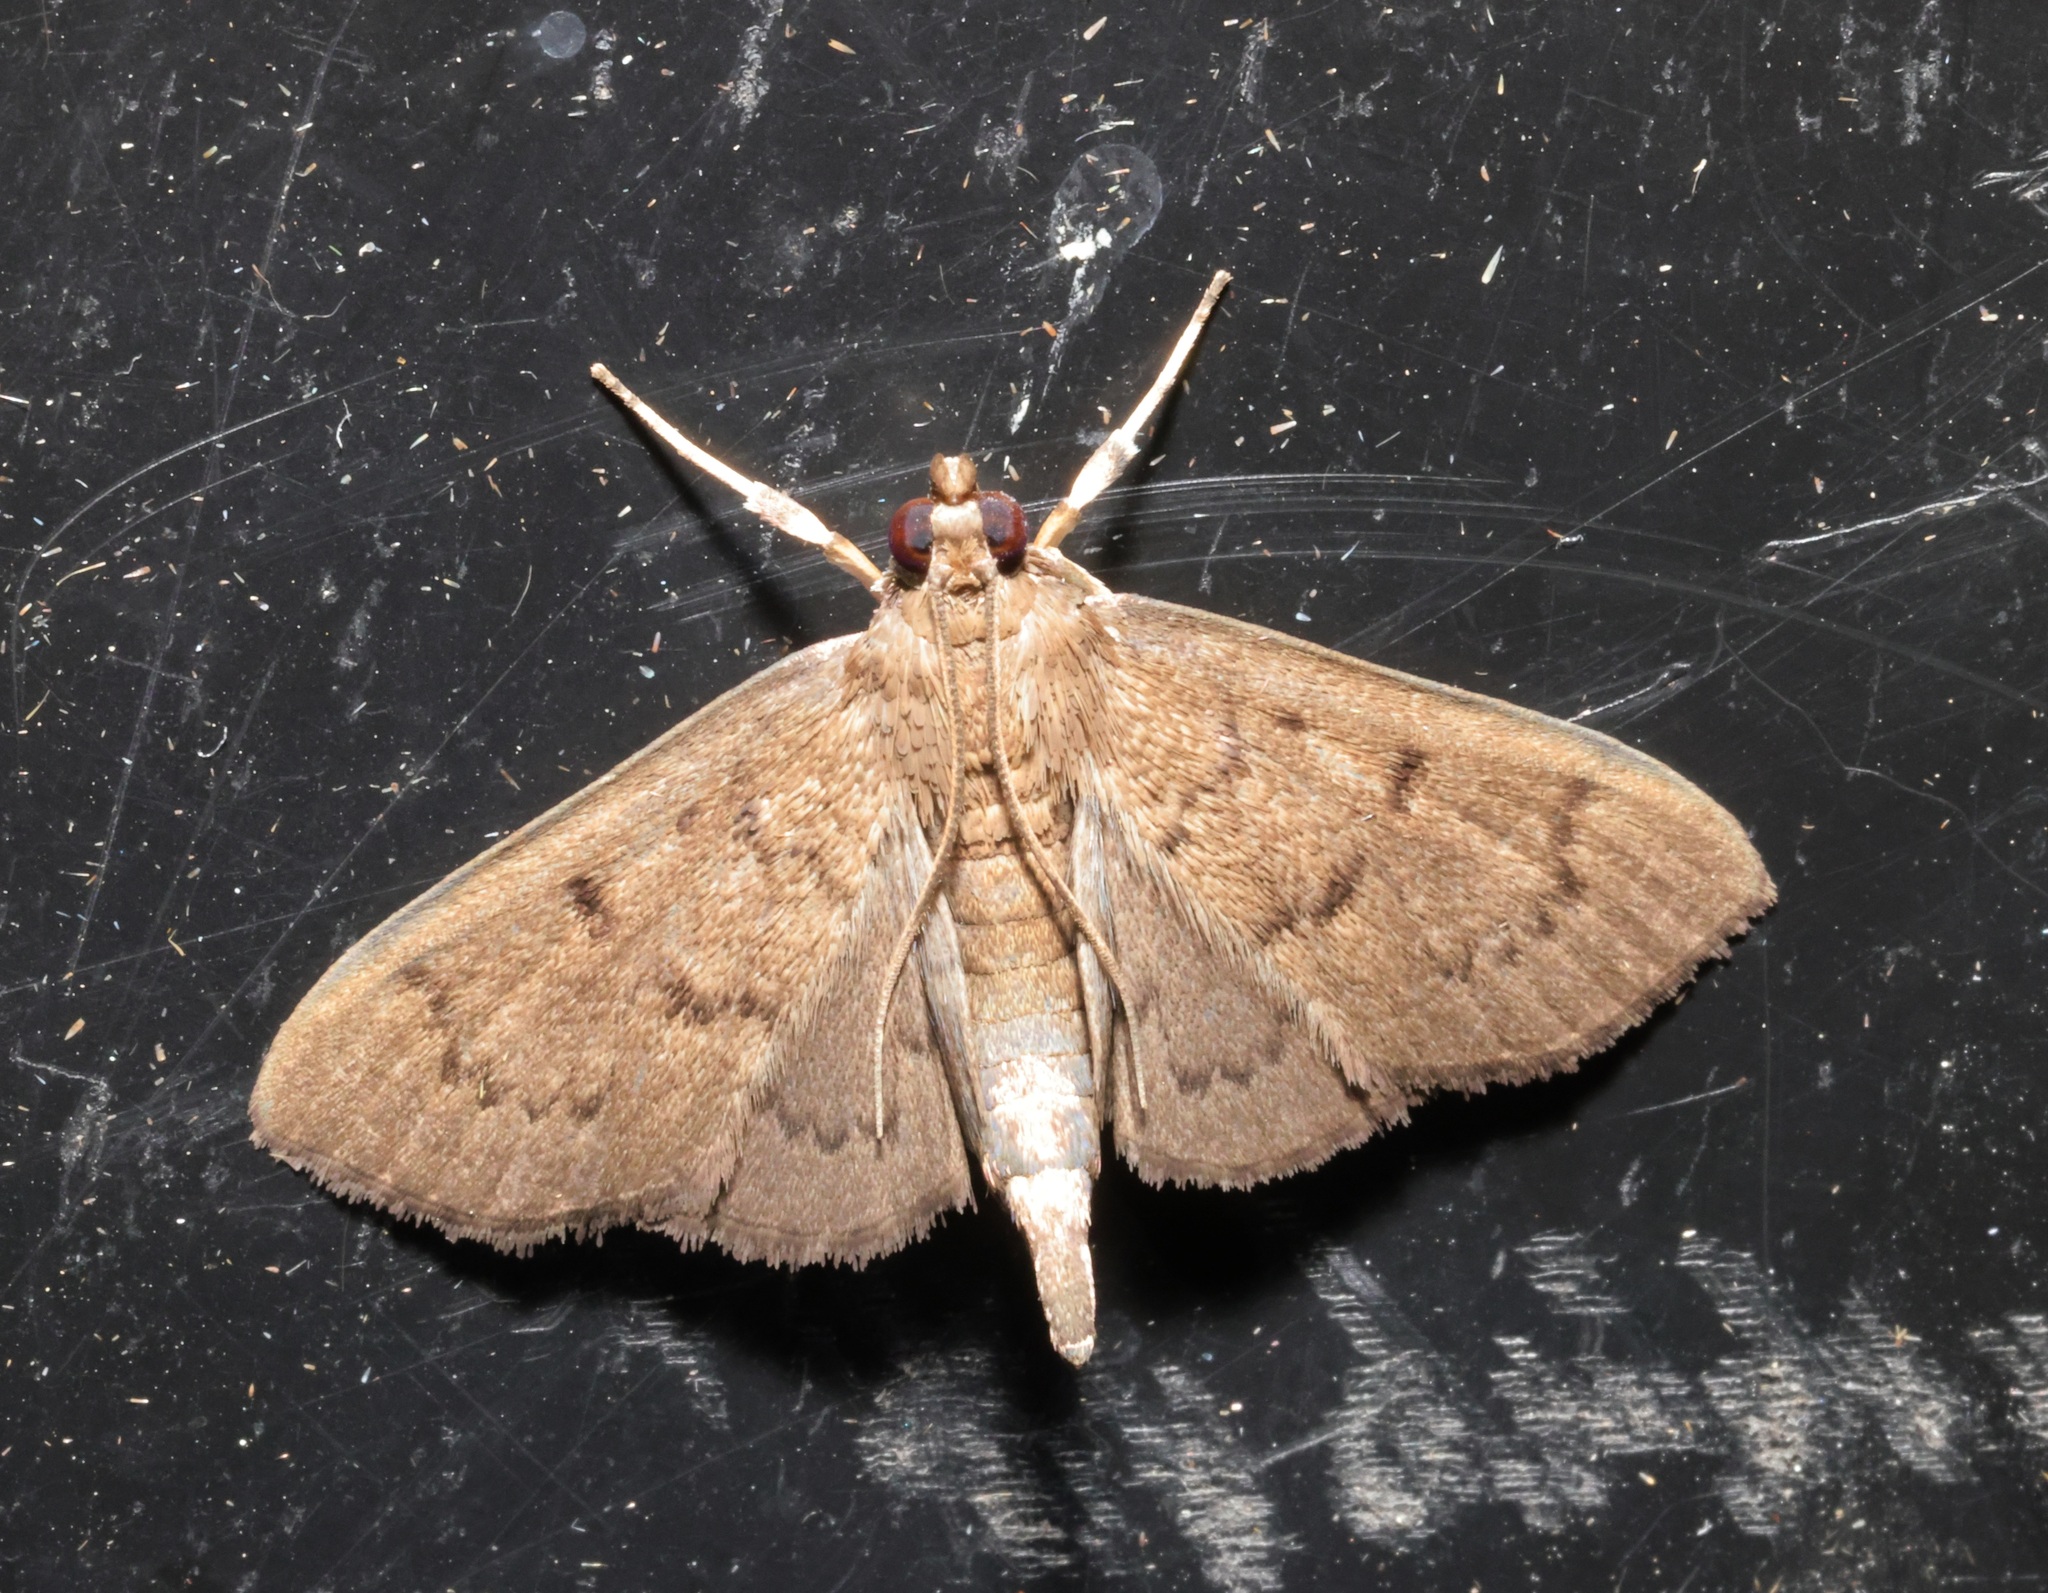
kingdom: Animalia
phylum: Arthropoda
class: Insecta
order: Lepidoptera
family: Crambidae
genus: Lamprosema
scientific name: Lamprosema tristrialis
